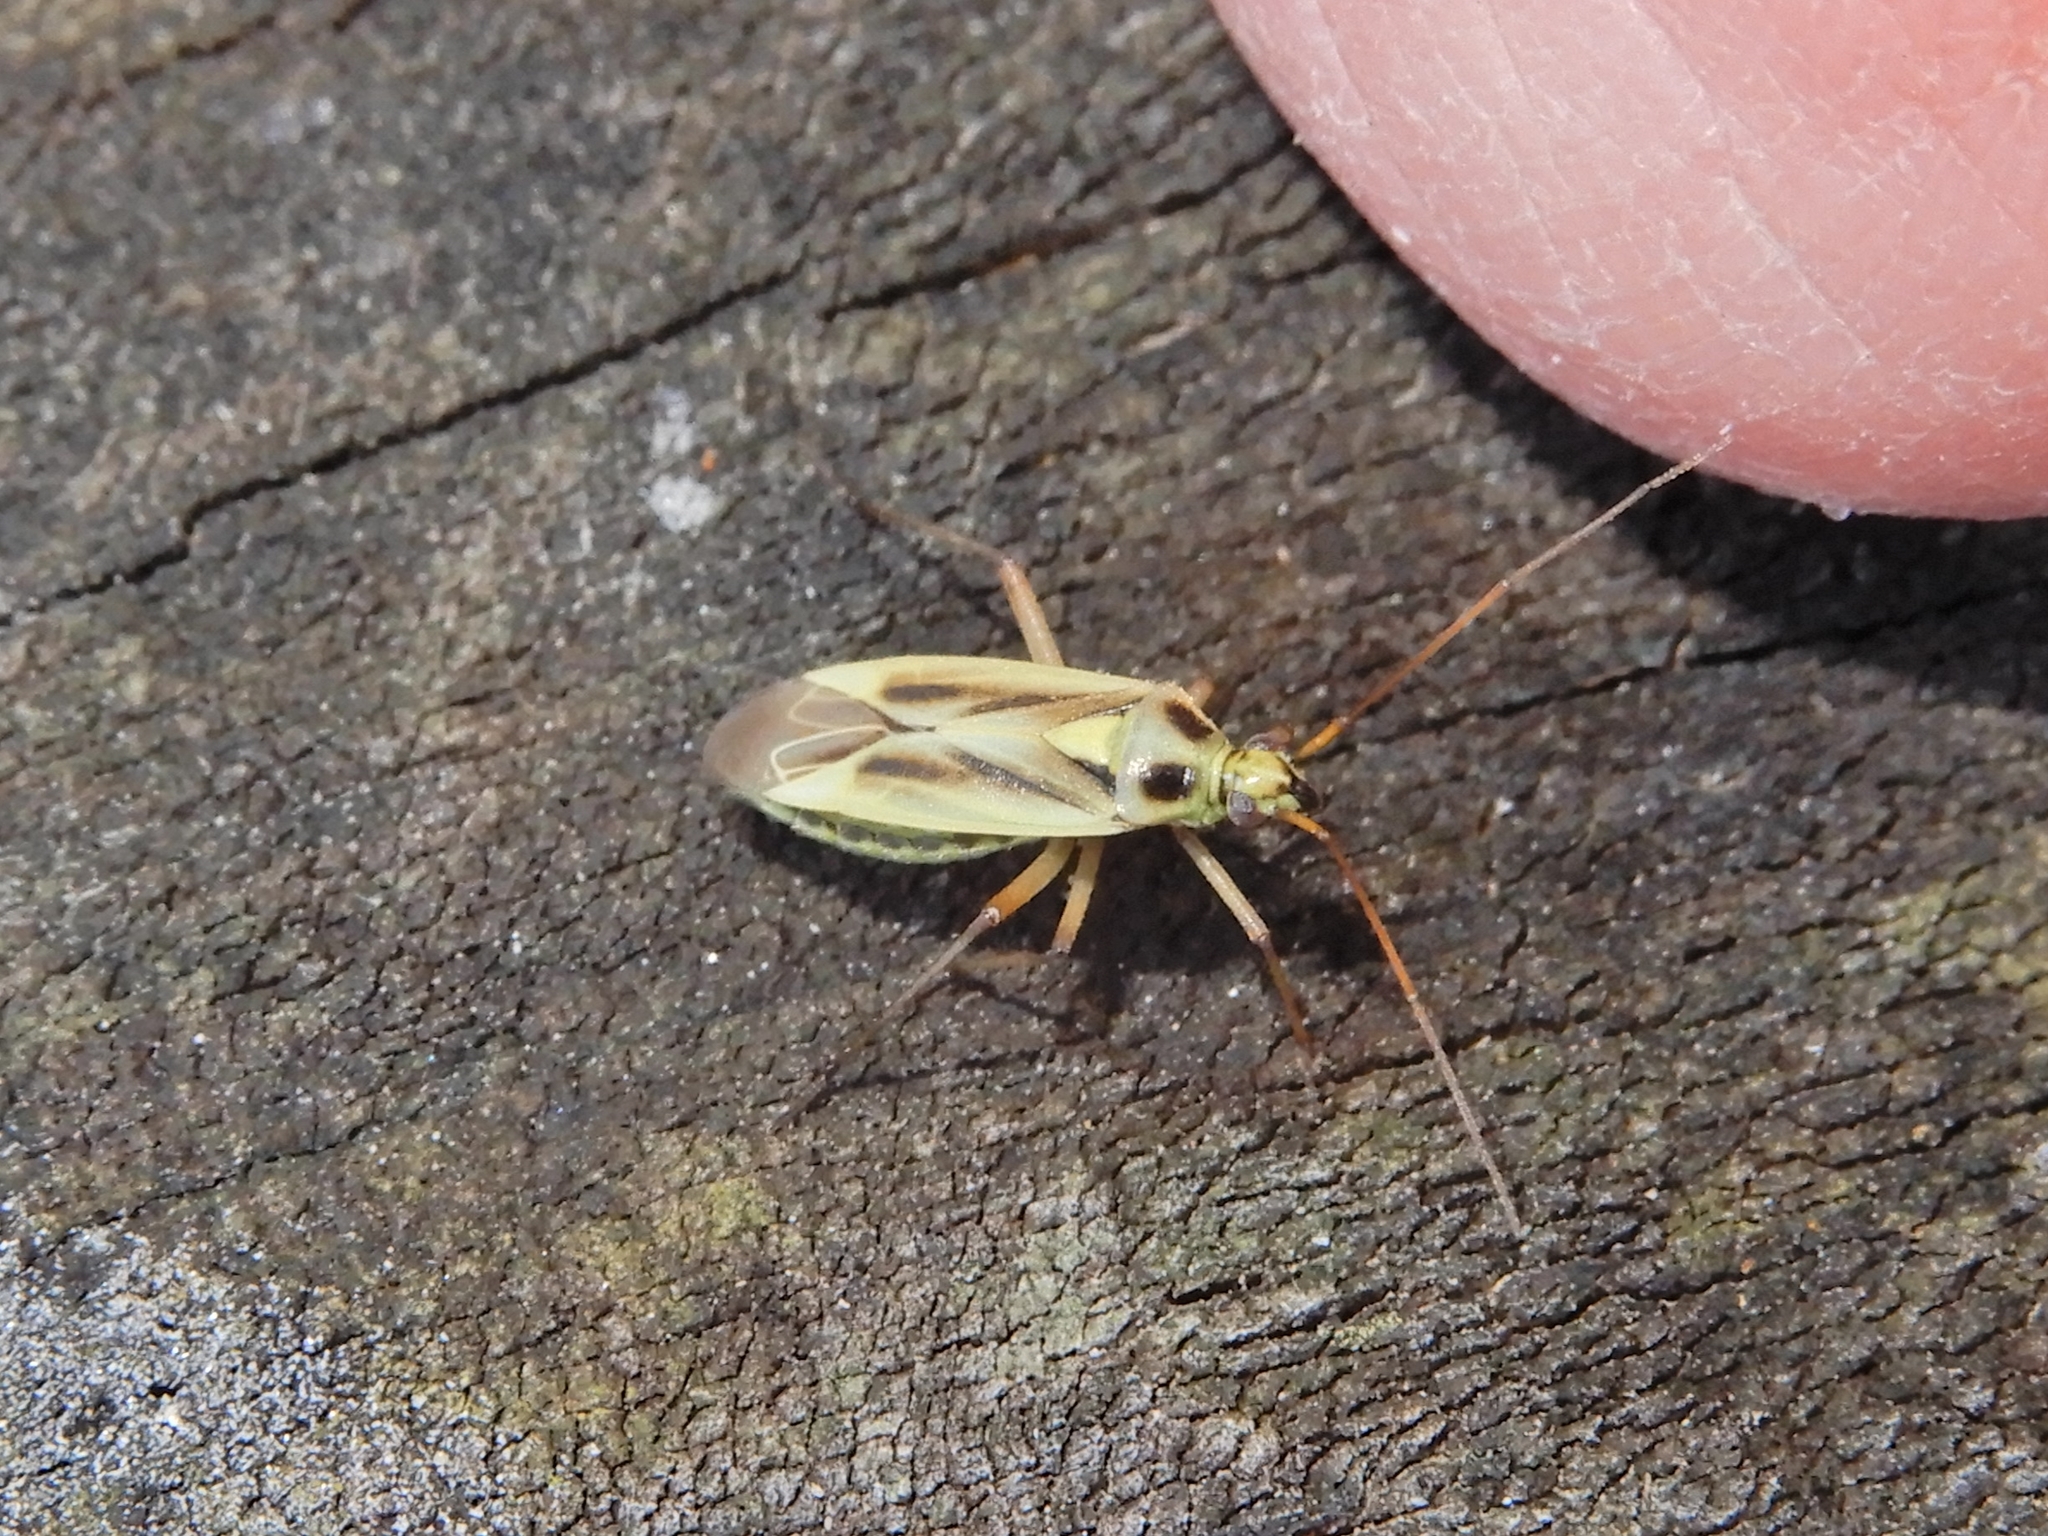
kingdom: Animalia
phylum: Arthropoda
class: Insecta
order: Hemiptera
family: Miridae
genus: Stenotus
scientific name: Stenotus binotatus
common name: Plant bug
